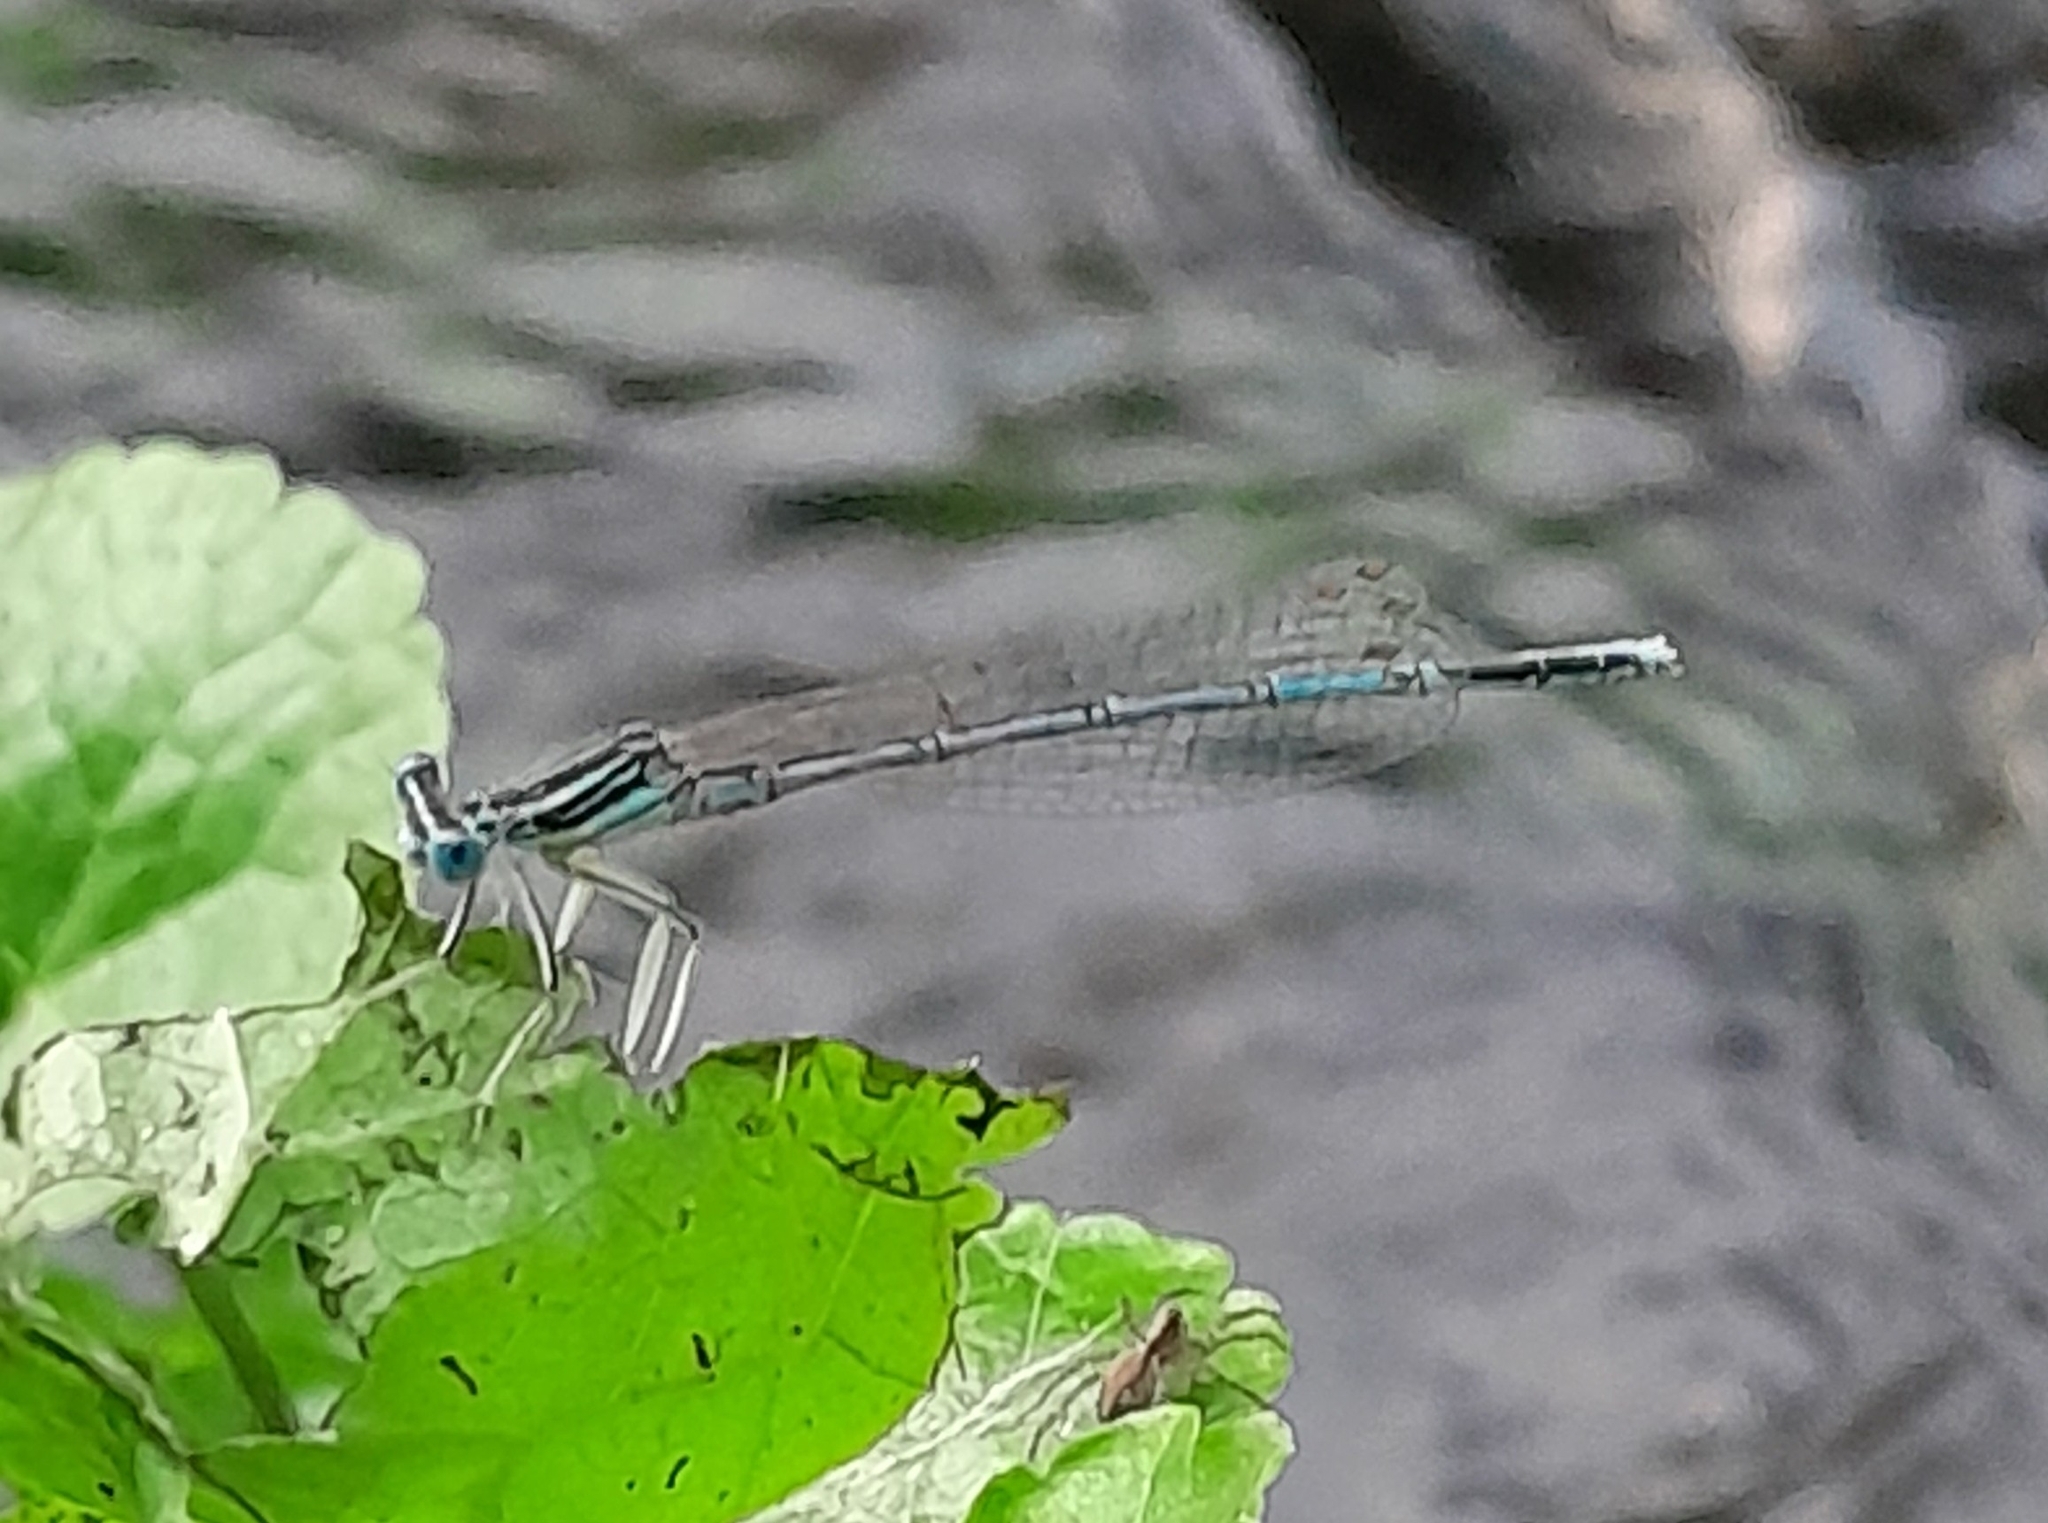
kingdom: Animalia
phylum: Arthropoda
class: Insecta
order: Odonata
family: Platycnemididae
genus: Platycnemis
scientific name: Platycnemis pennipes
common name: White-legged damselfly
